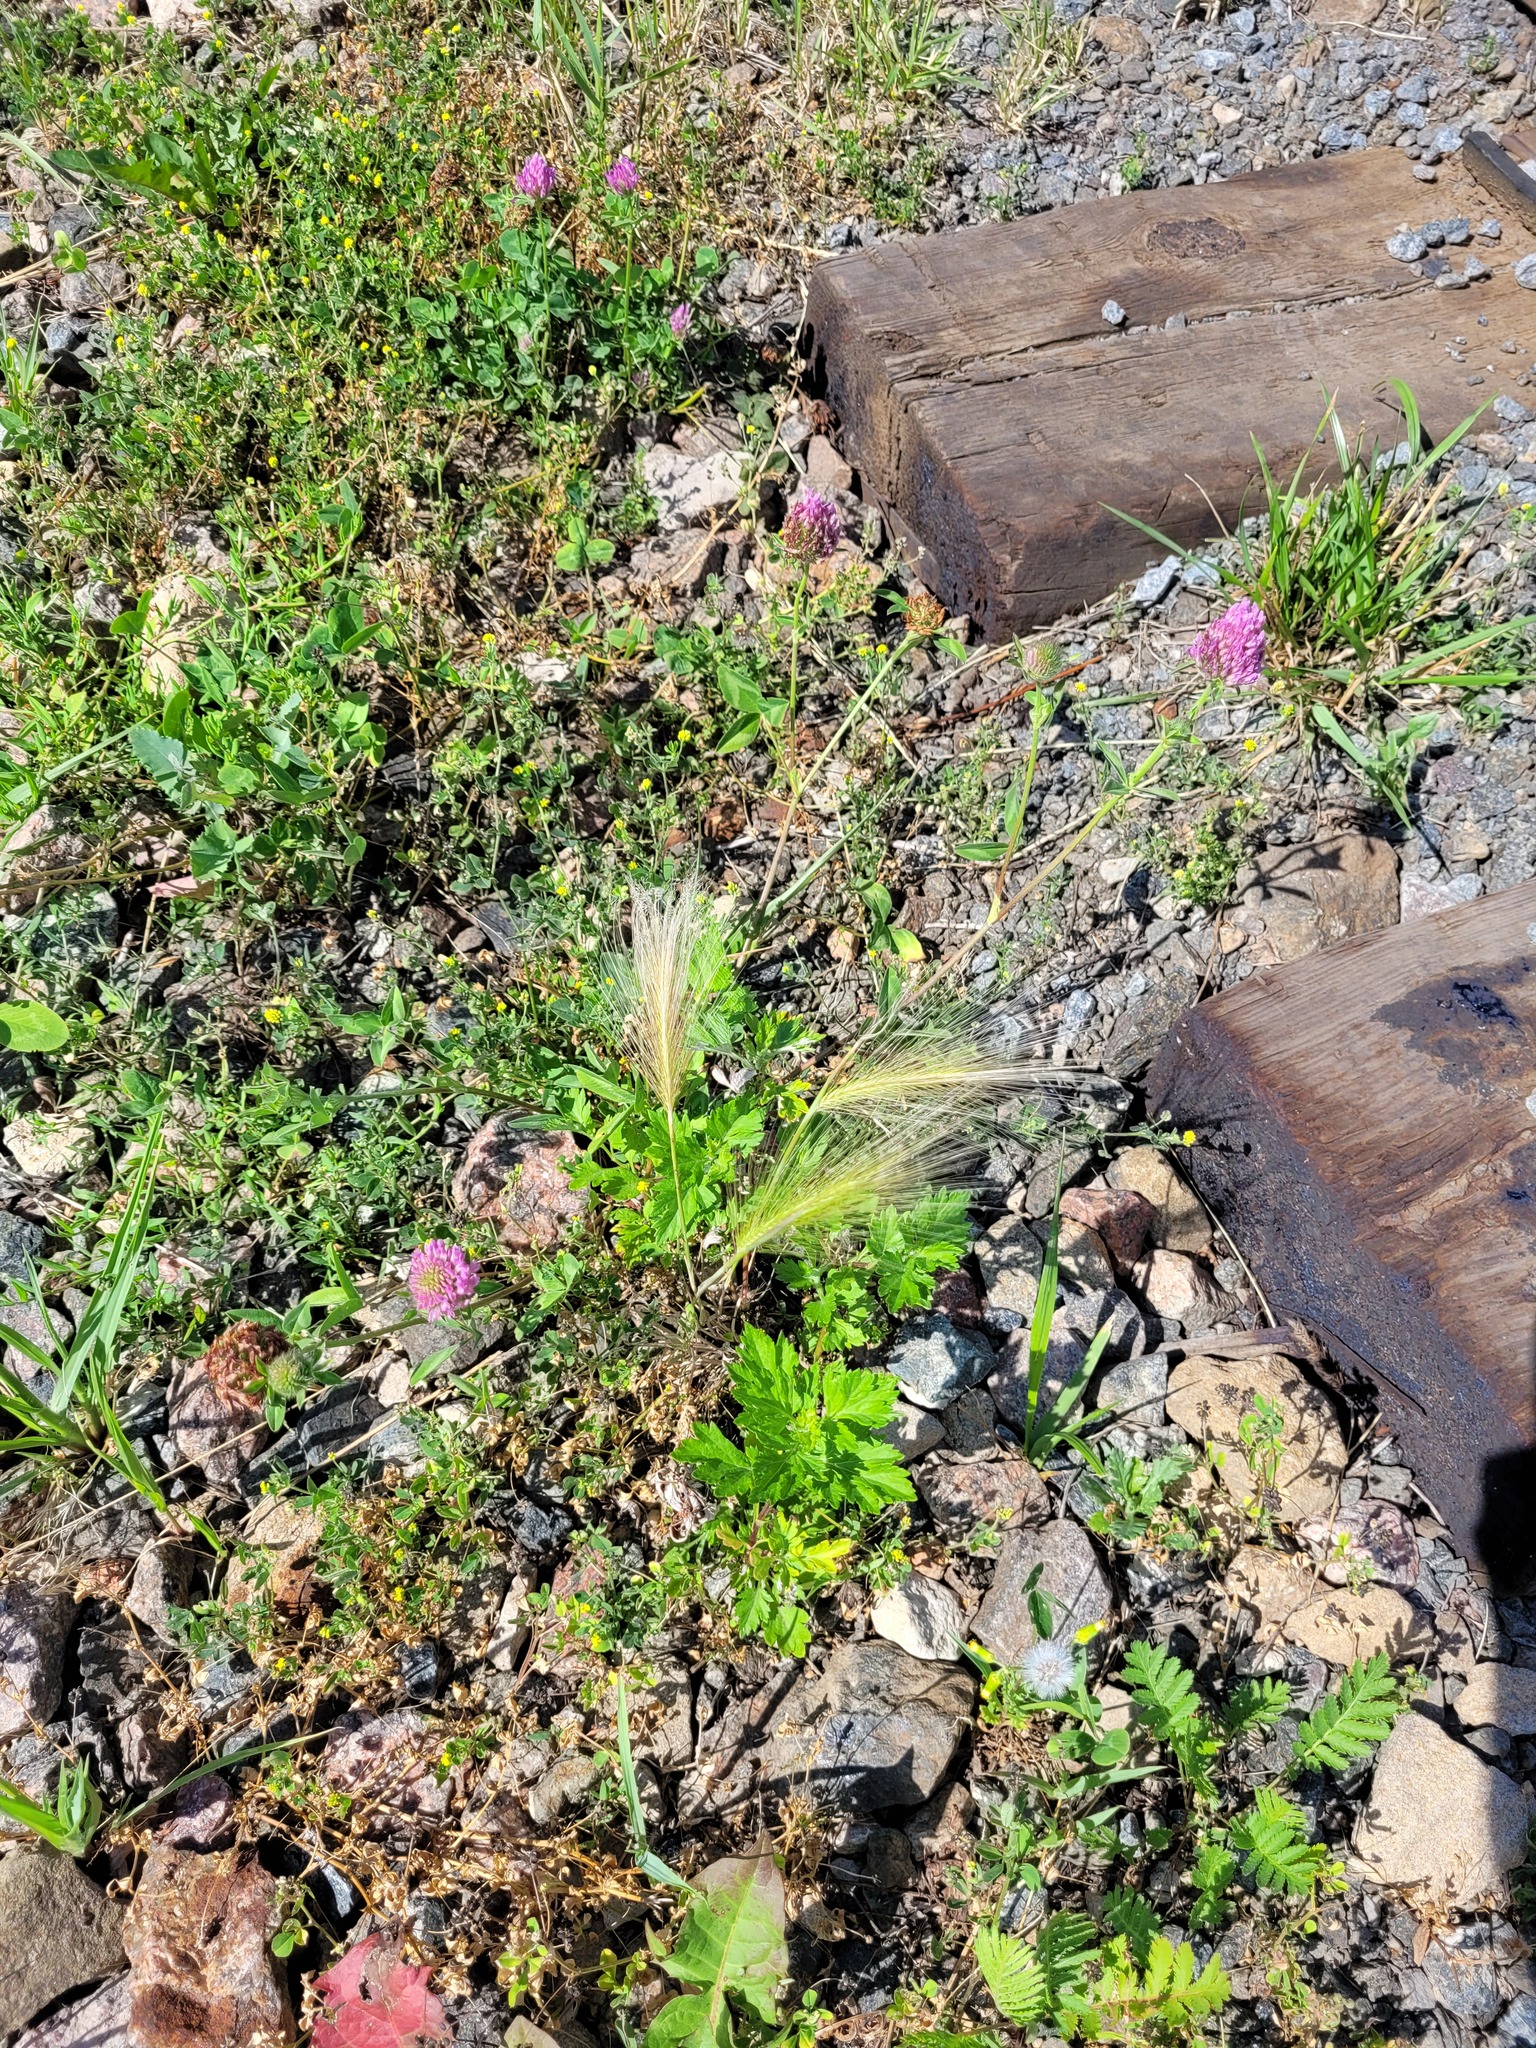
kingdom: Plantae
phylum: Tracheophyta
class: Liliopsida
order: Poales
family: Poaceae
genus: Hordeum
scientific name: Hordeum jubatum
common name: Foxtail barley
